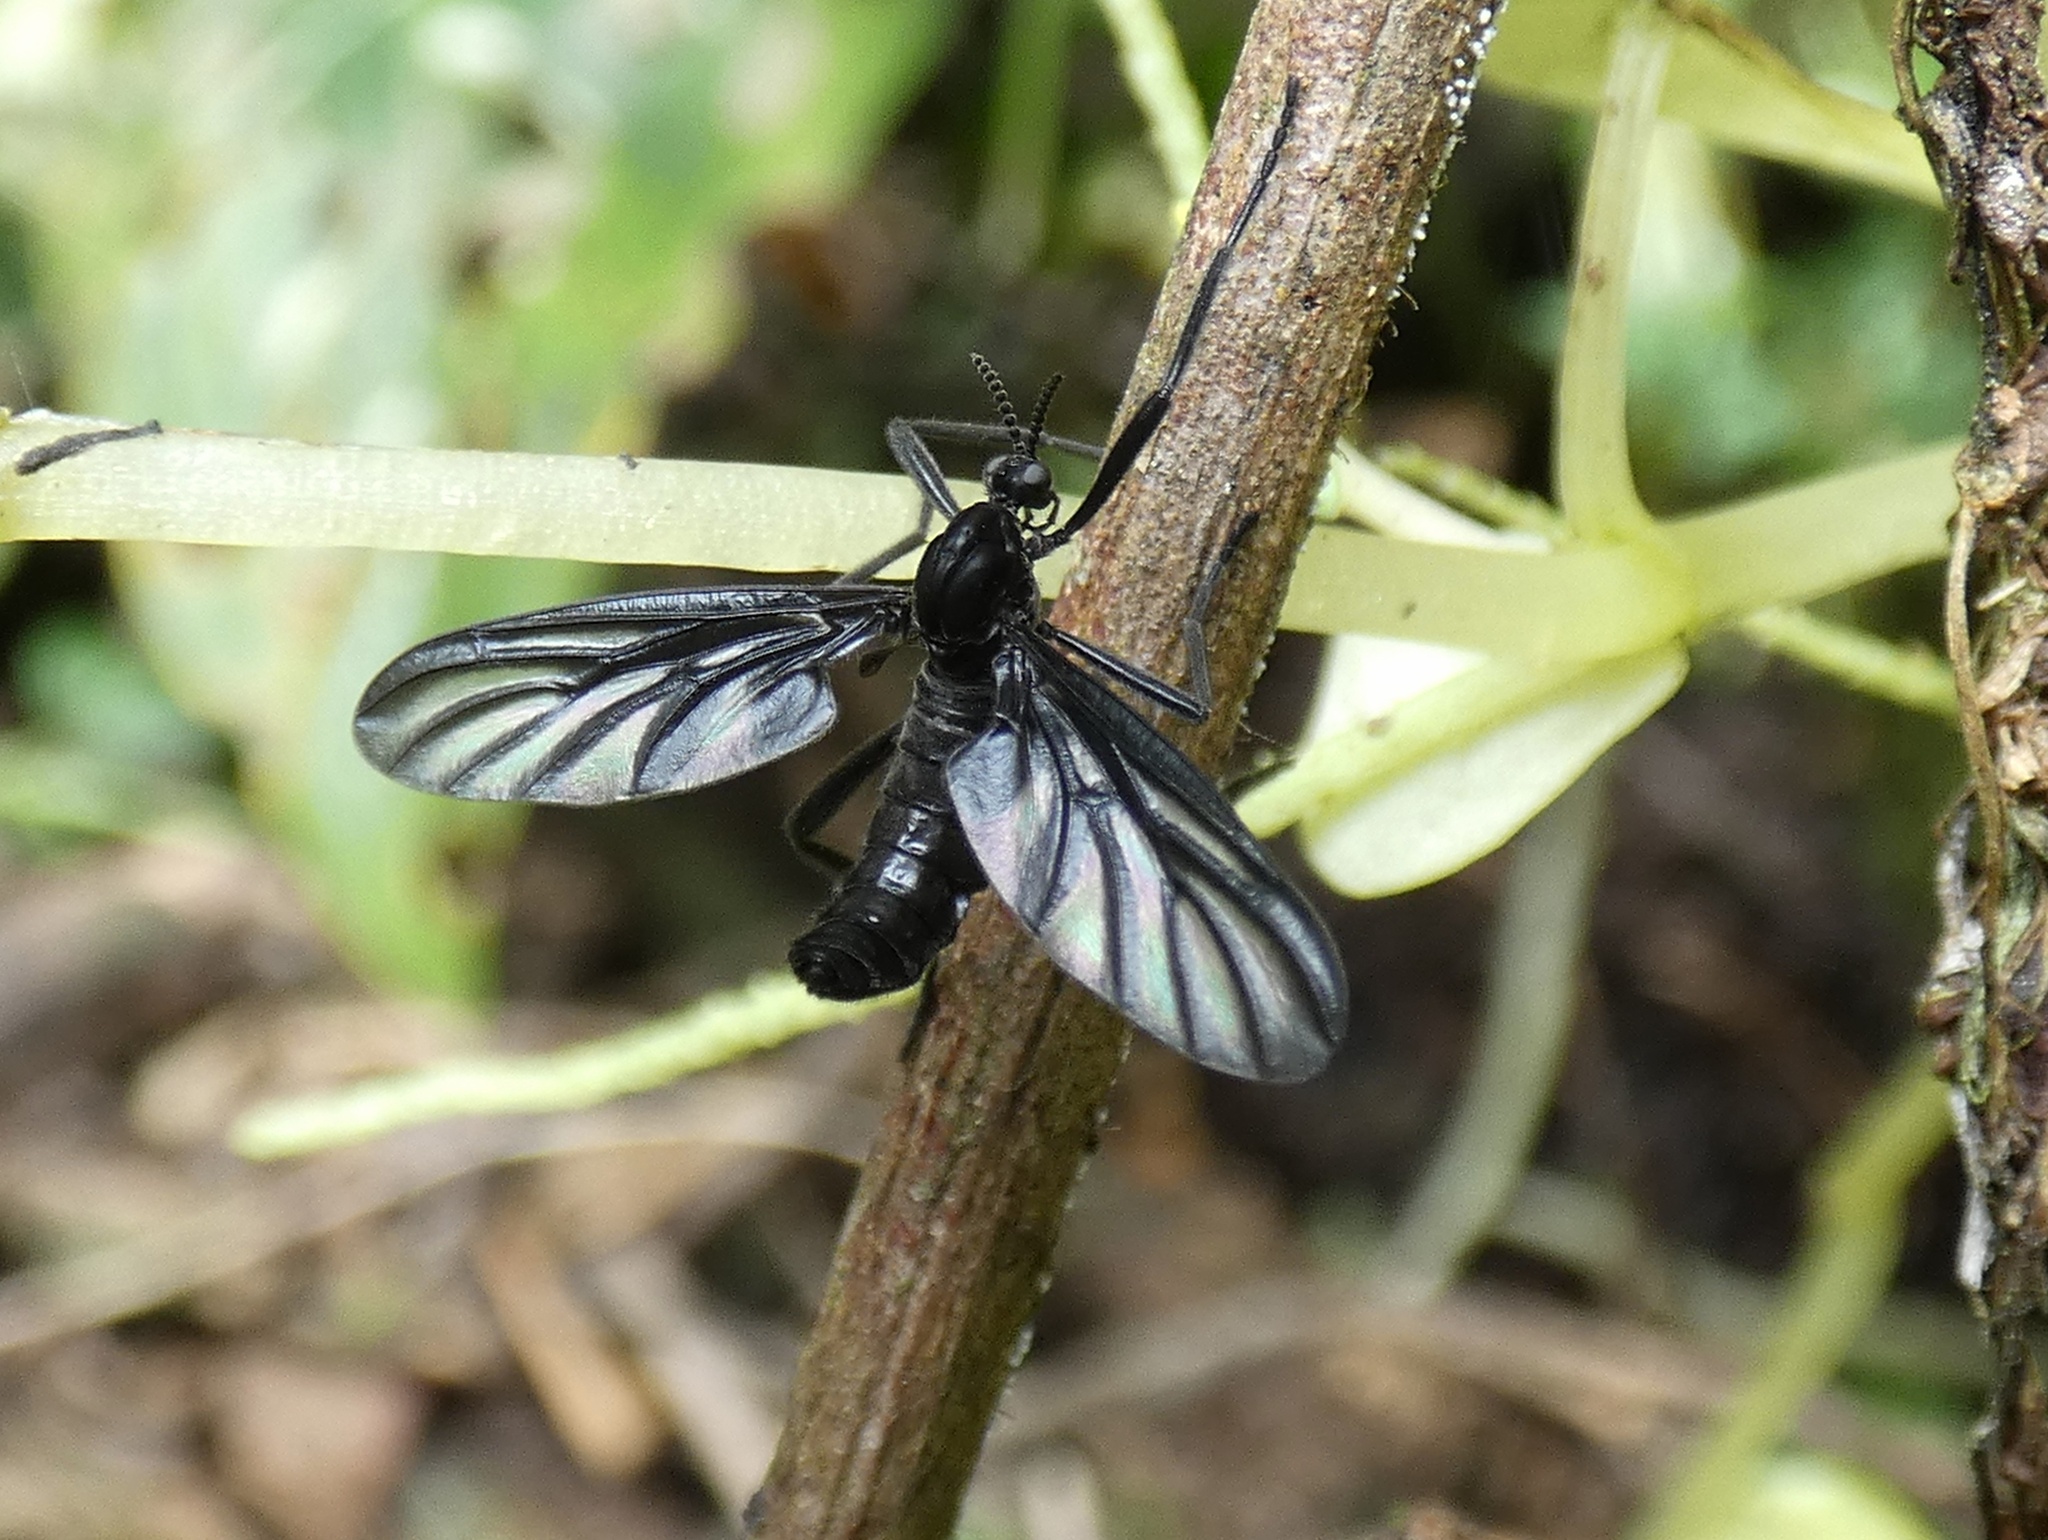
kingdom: Animalia
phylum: Arthropoda
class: Insecta
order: Diptera
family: Bibionidae
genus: Plecia
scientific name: Plecia plagiata
